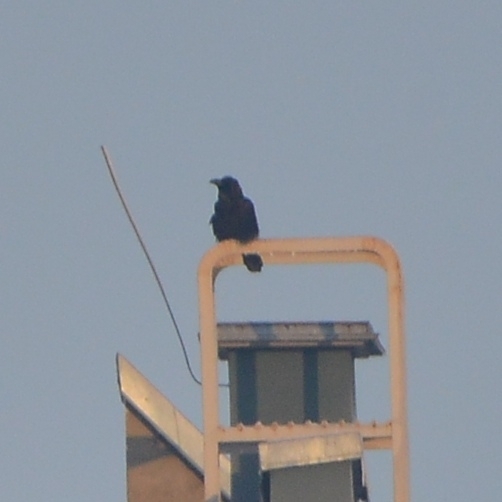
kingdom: Animalia
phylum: Chordata
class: Aves
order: Passeriformes
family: Corvidae
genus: Corvus
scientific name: Corvus corax
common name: Common raven
